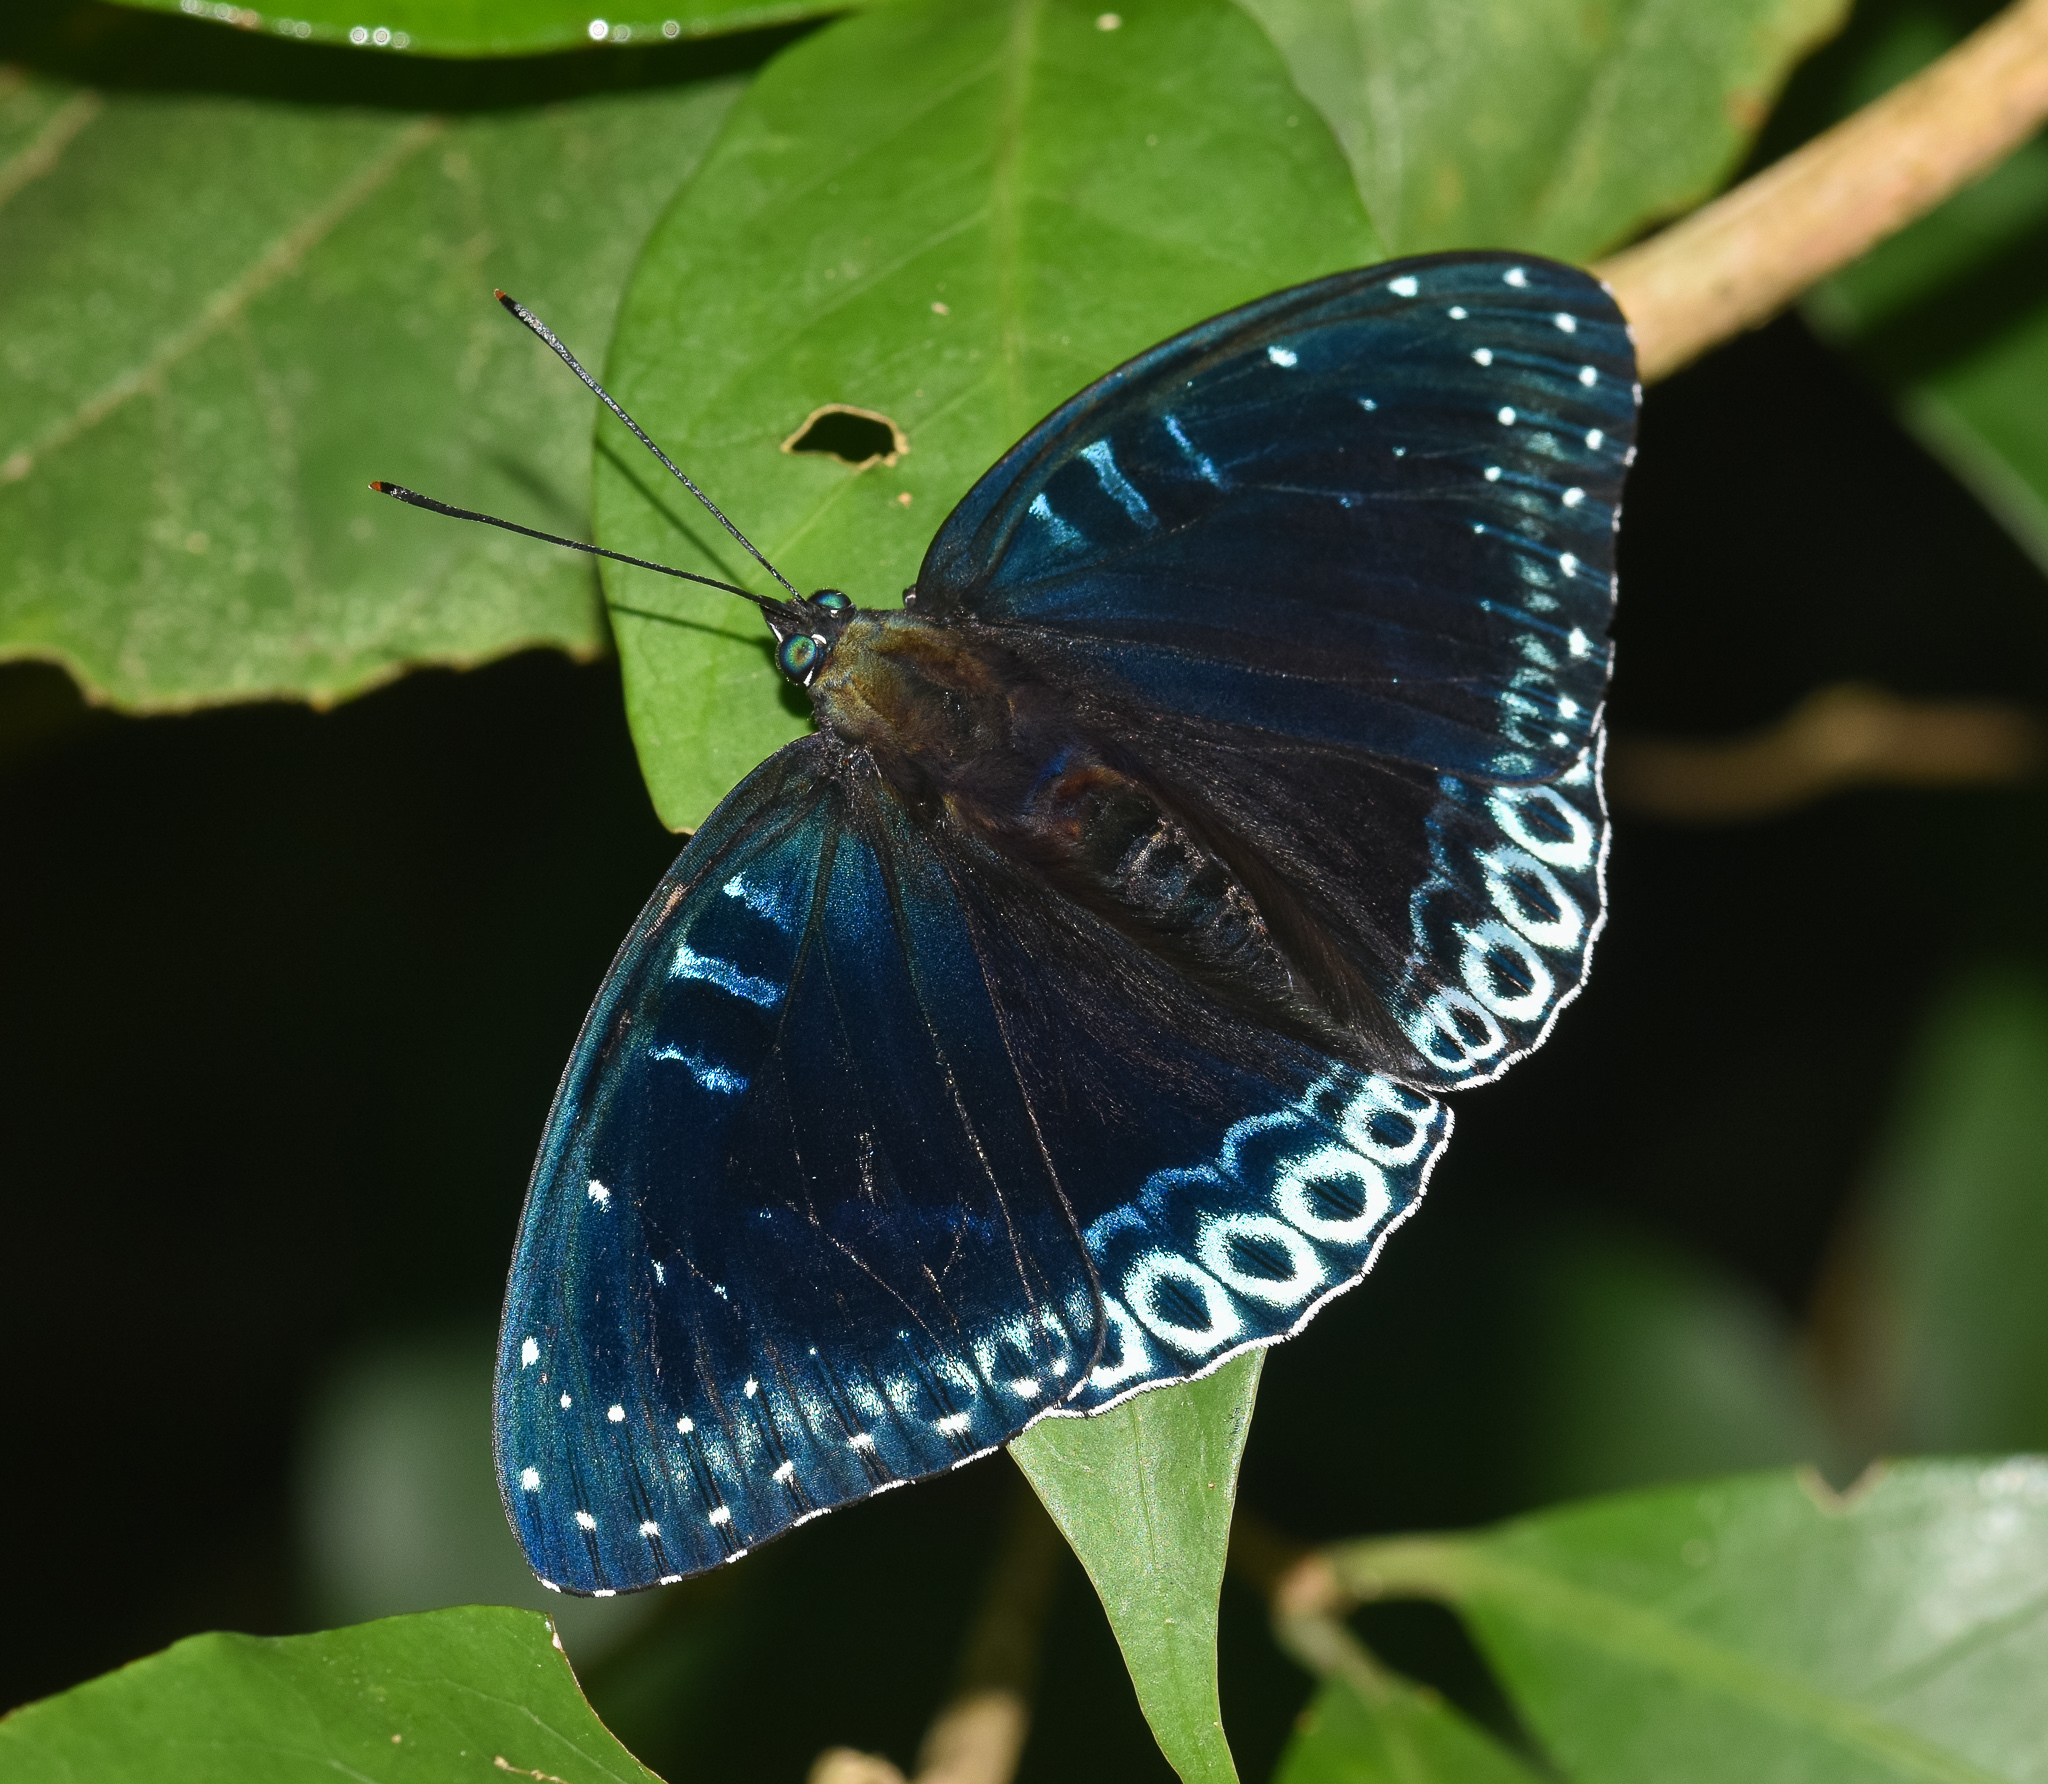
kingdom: Animalia
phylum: Arthropoda
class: Insecta
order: Lepidoptera
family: Nymphalidae
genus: Stibochiona
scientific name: Stibochiona nicea
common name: Popinjay
